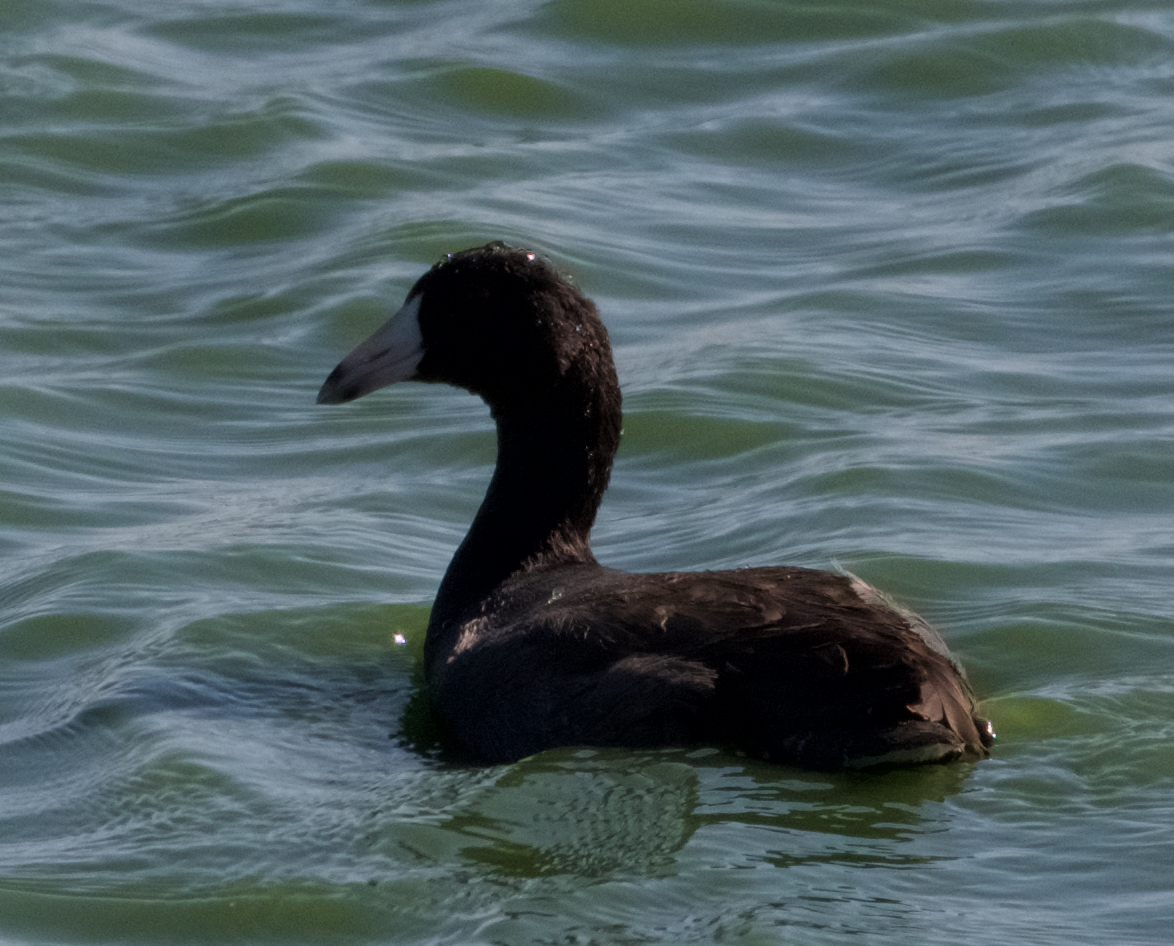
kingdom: Animalia
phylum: Chordata
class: Aves
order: Gruiformes
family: Rallidae
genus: Fulica
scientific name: Fulica americana
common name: American coot
